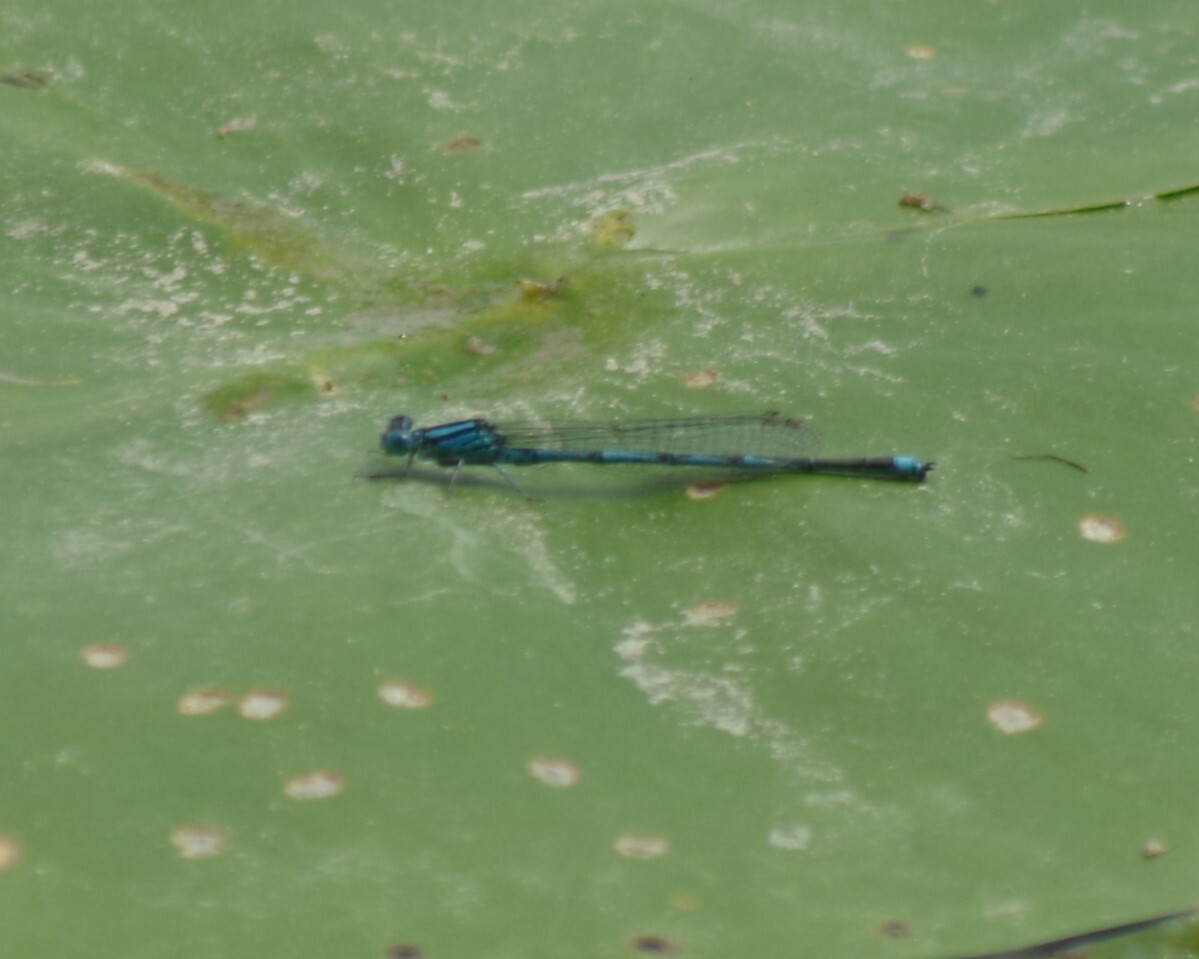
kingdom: Animalia
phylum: Arthropoda
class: Insecta
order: Odonata
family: Coenagrionidae
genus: Erythromma
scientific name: Erythromma lindenii
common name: Blue-eye
